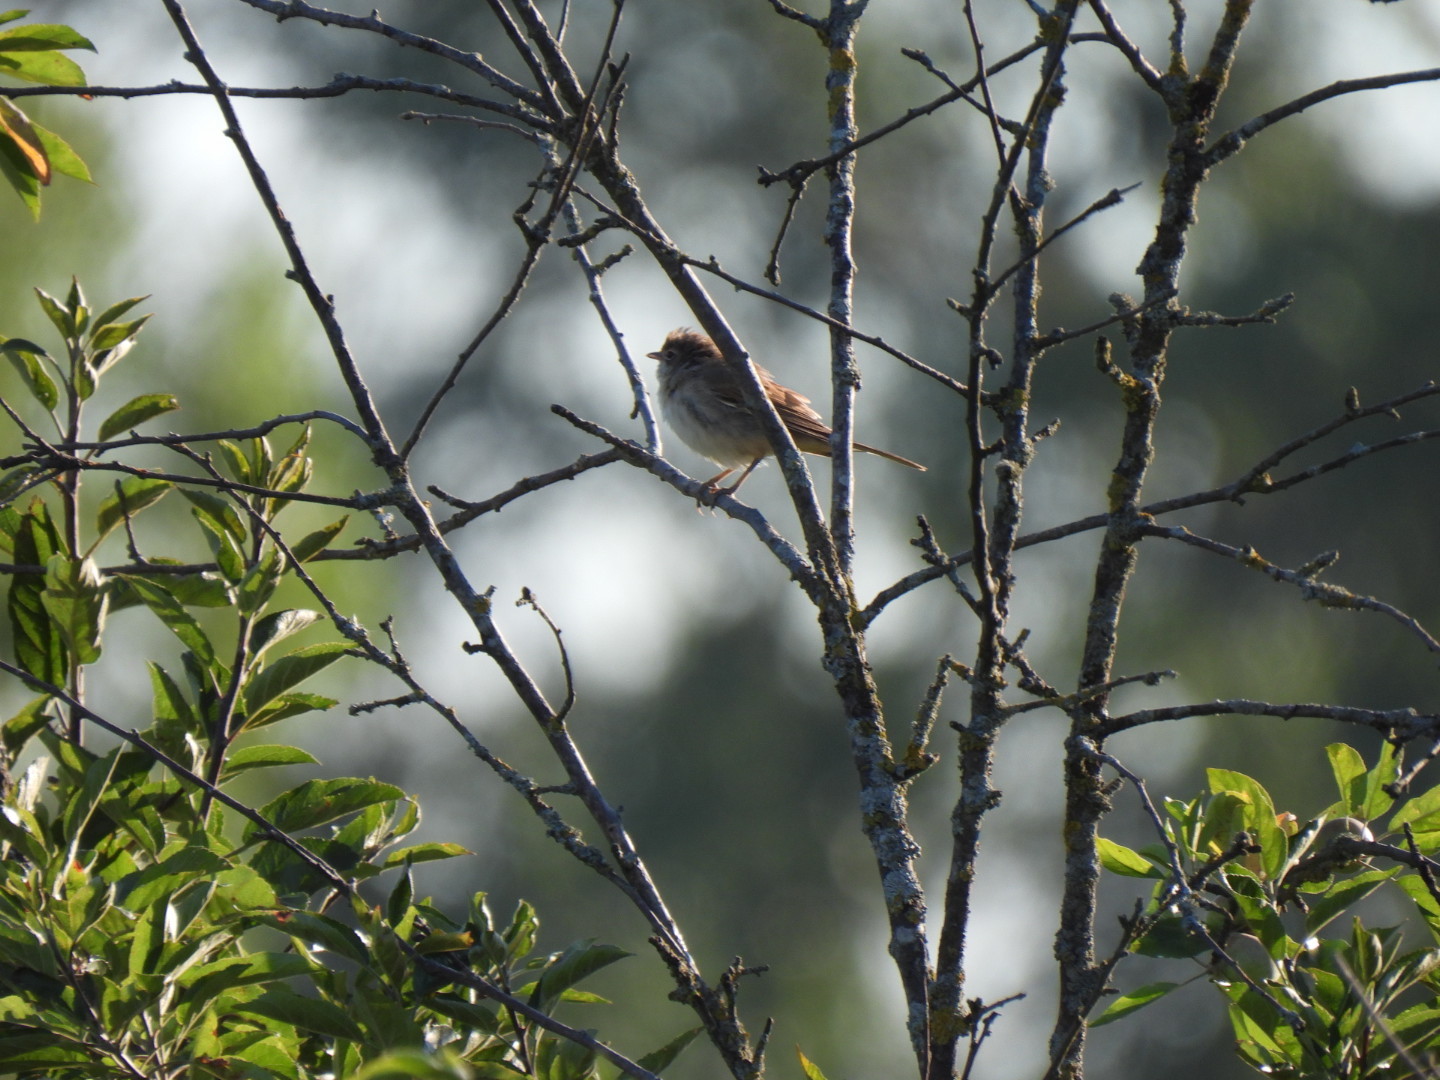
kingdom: Animalia
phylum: Chordata
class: Aves
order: Passeriformes
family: Sylviidae
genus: Sylvia
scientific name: Sylvia communis
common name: Common whitethroat
